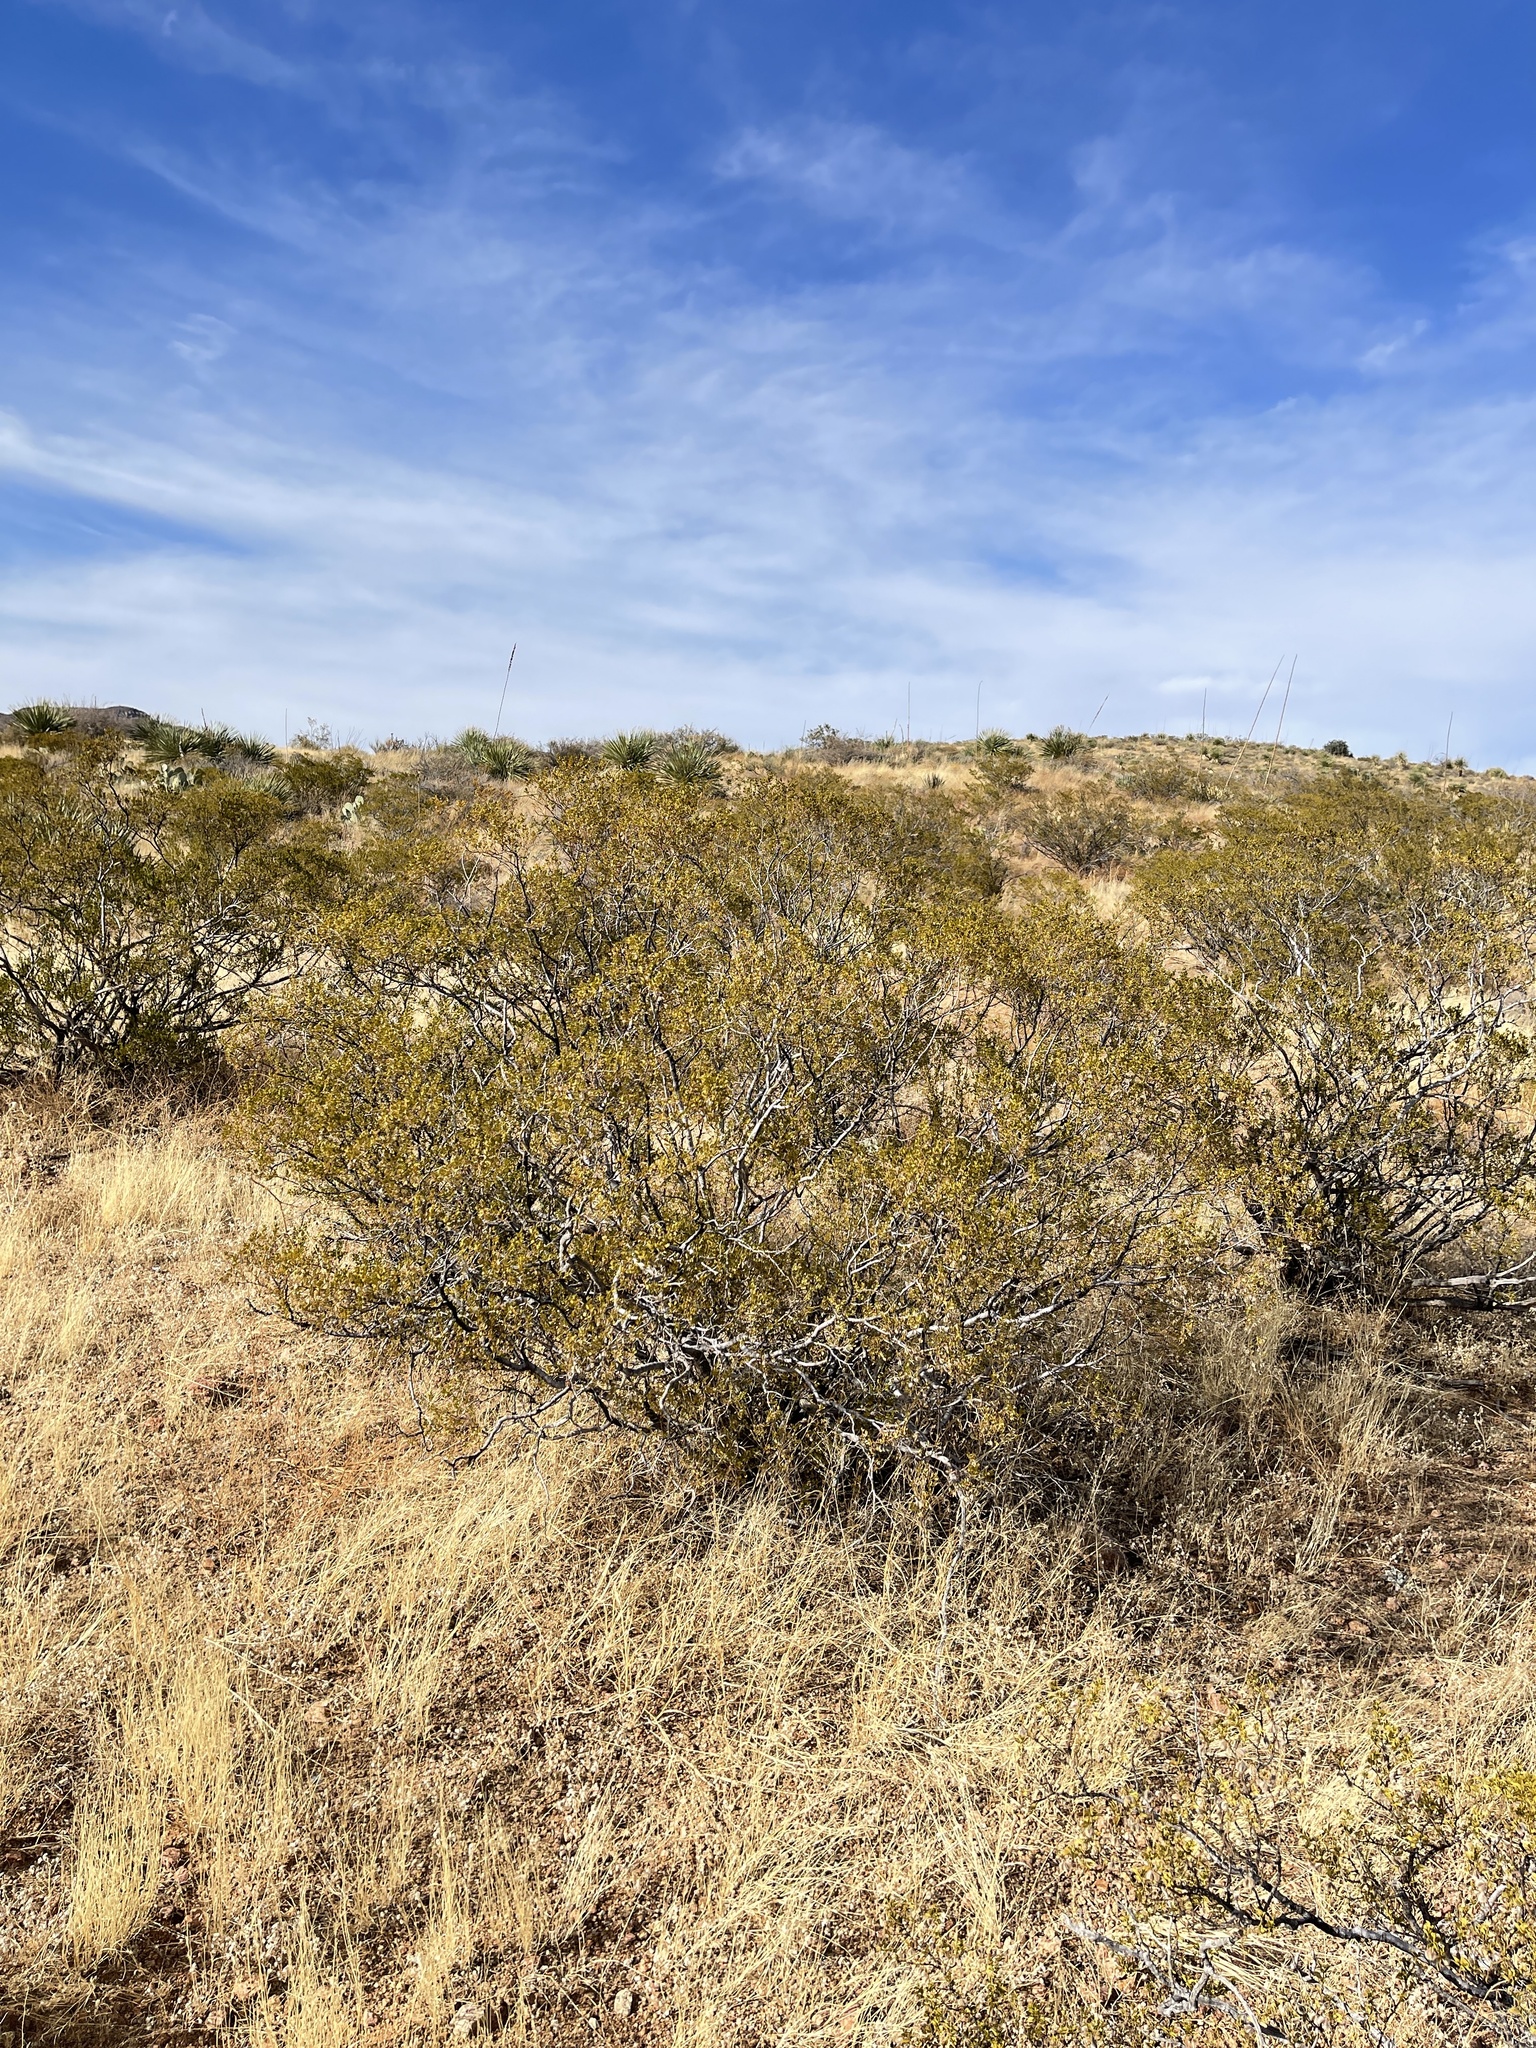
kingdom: Plantae
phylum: Tracheophyta
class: Magnoliopsida
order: Zygophyllales
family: Zygophyllaceae
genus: Larrea
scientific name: Larrea tridentata
